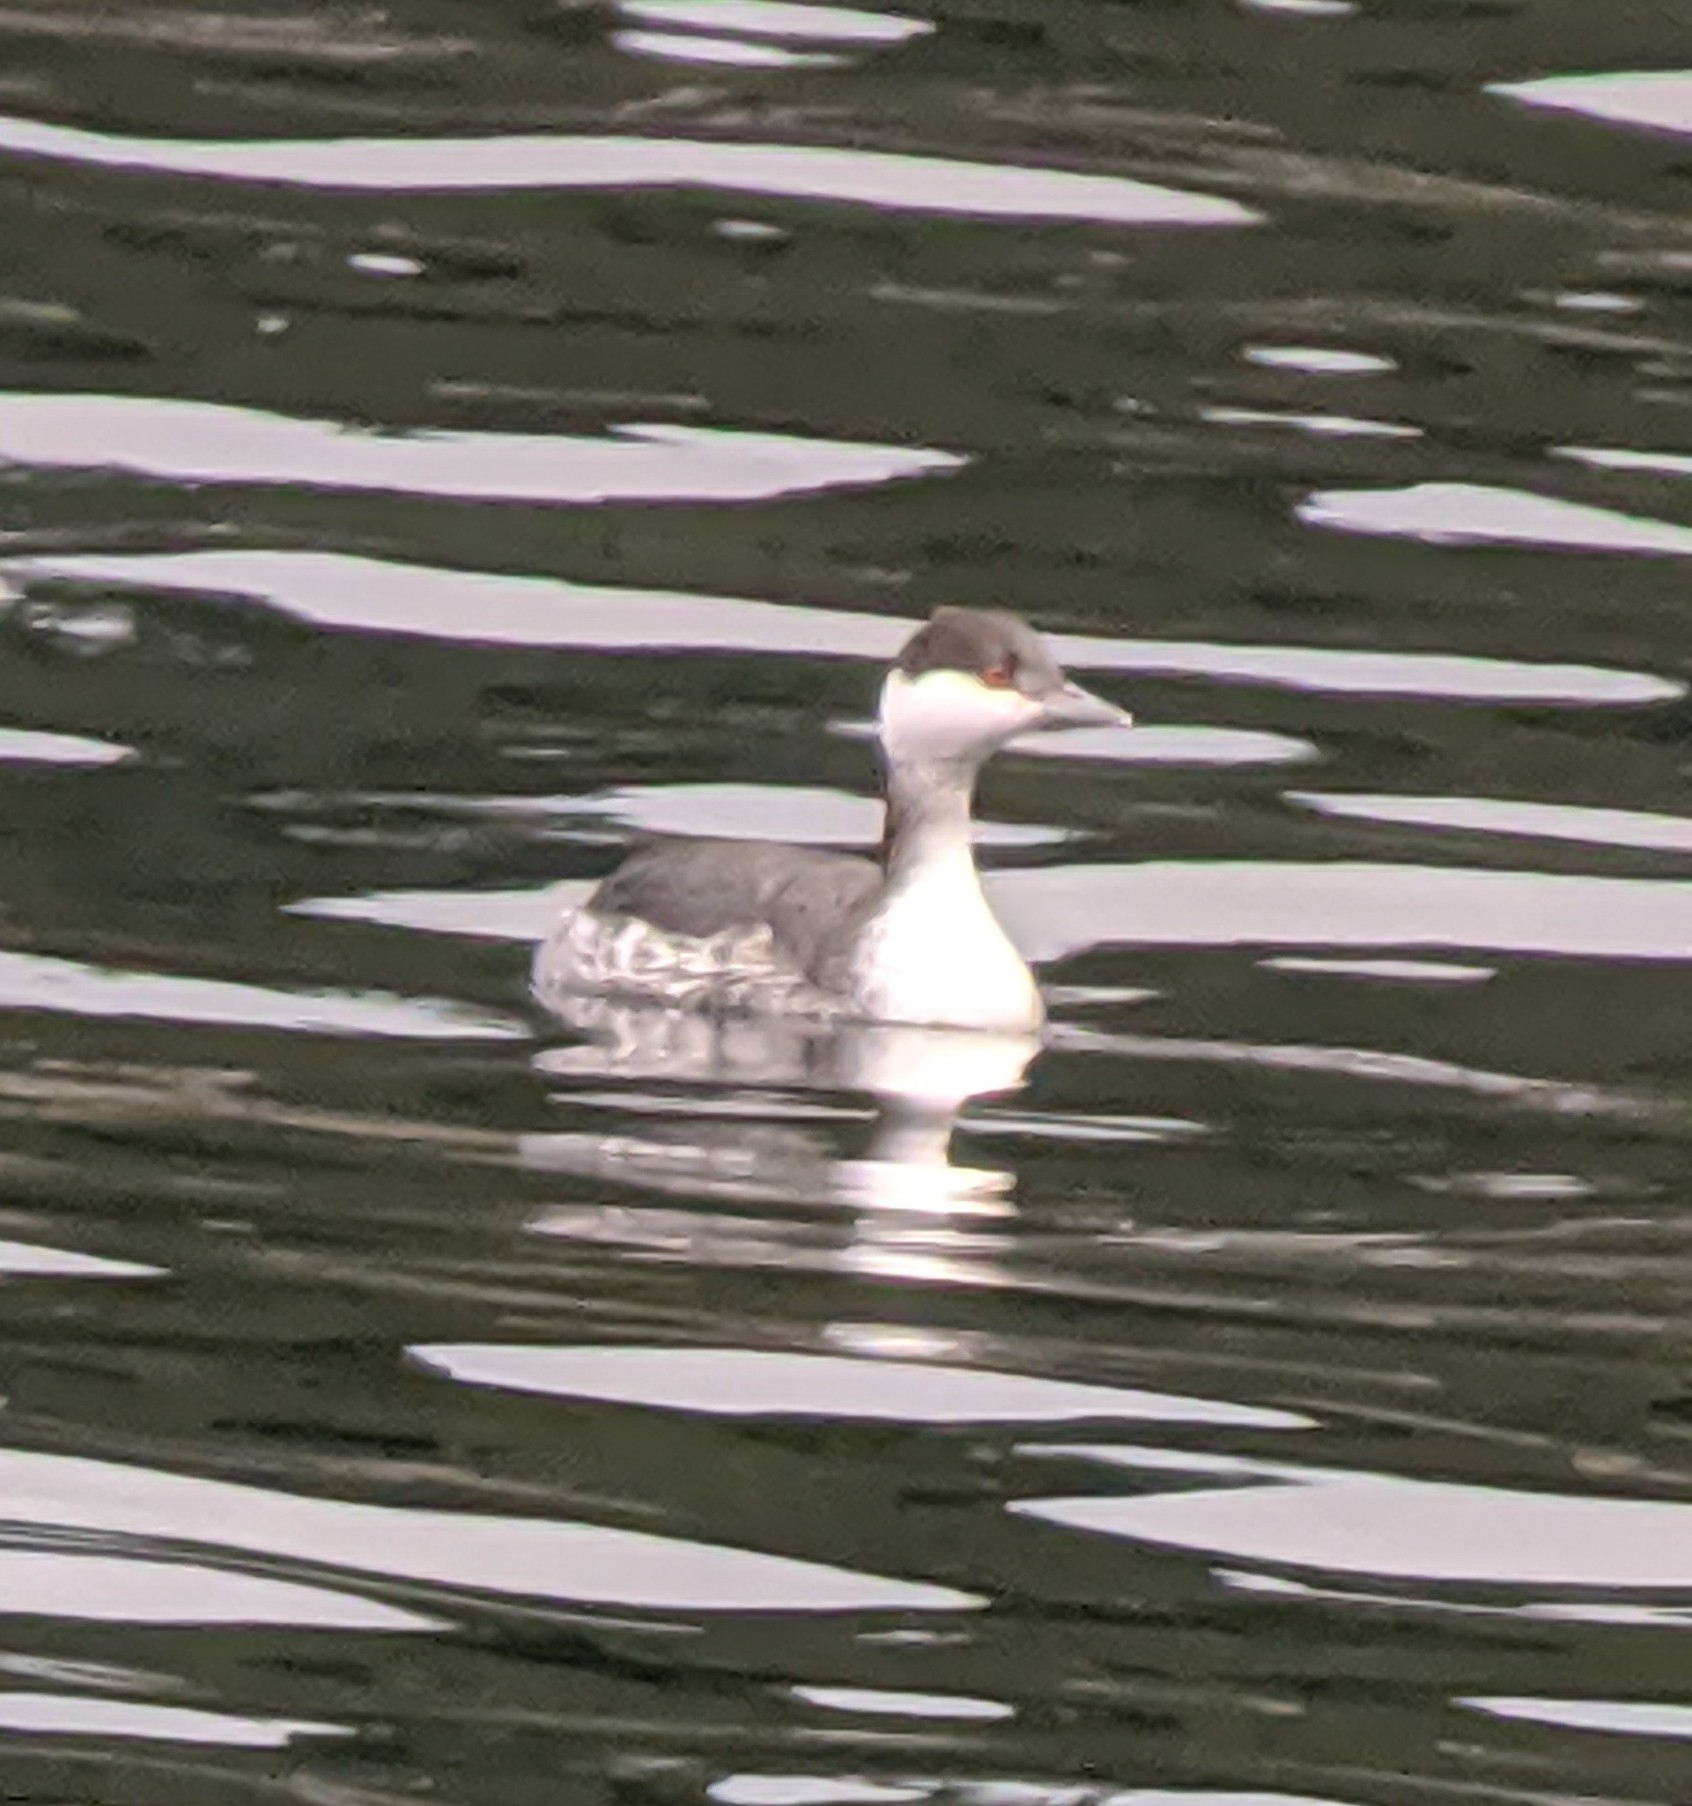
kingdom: Animalia
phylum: Chordata
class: Aves
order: Podicipediformes
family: Podicipedidae
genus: Podiceps
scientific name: Podiceps auritus
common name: Horned grebe
